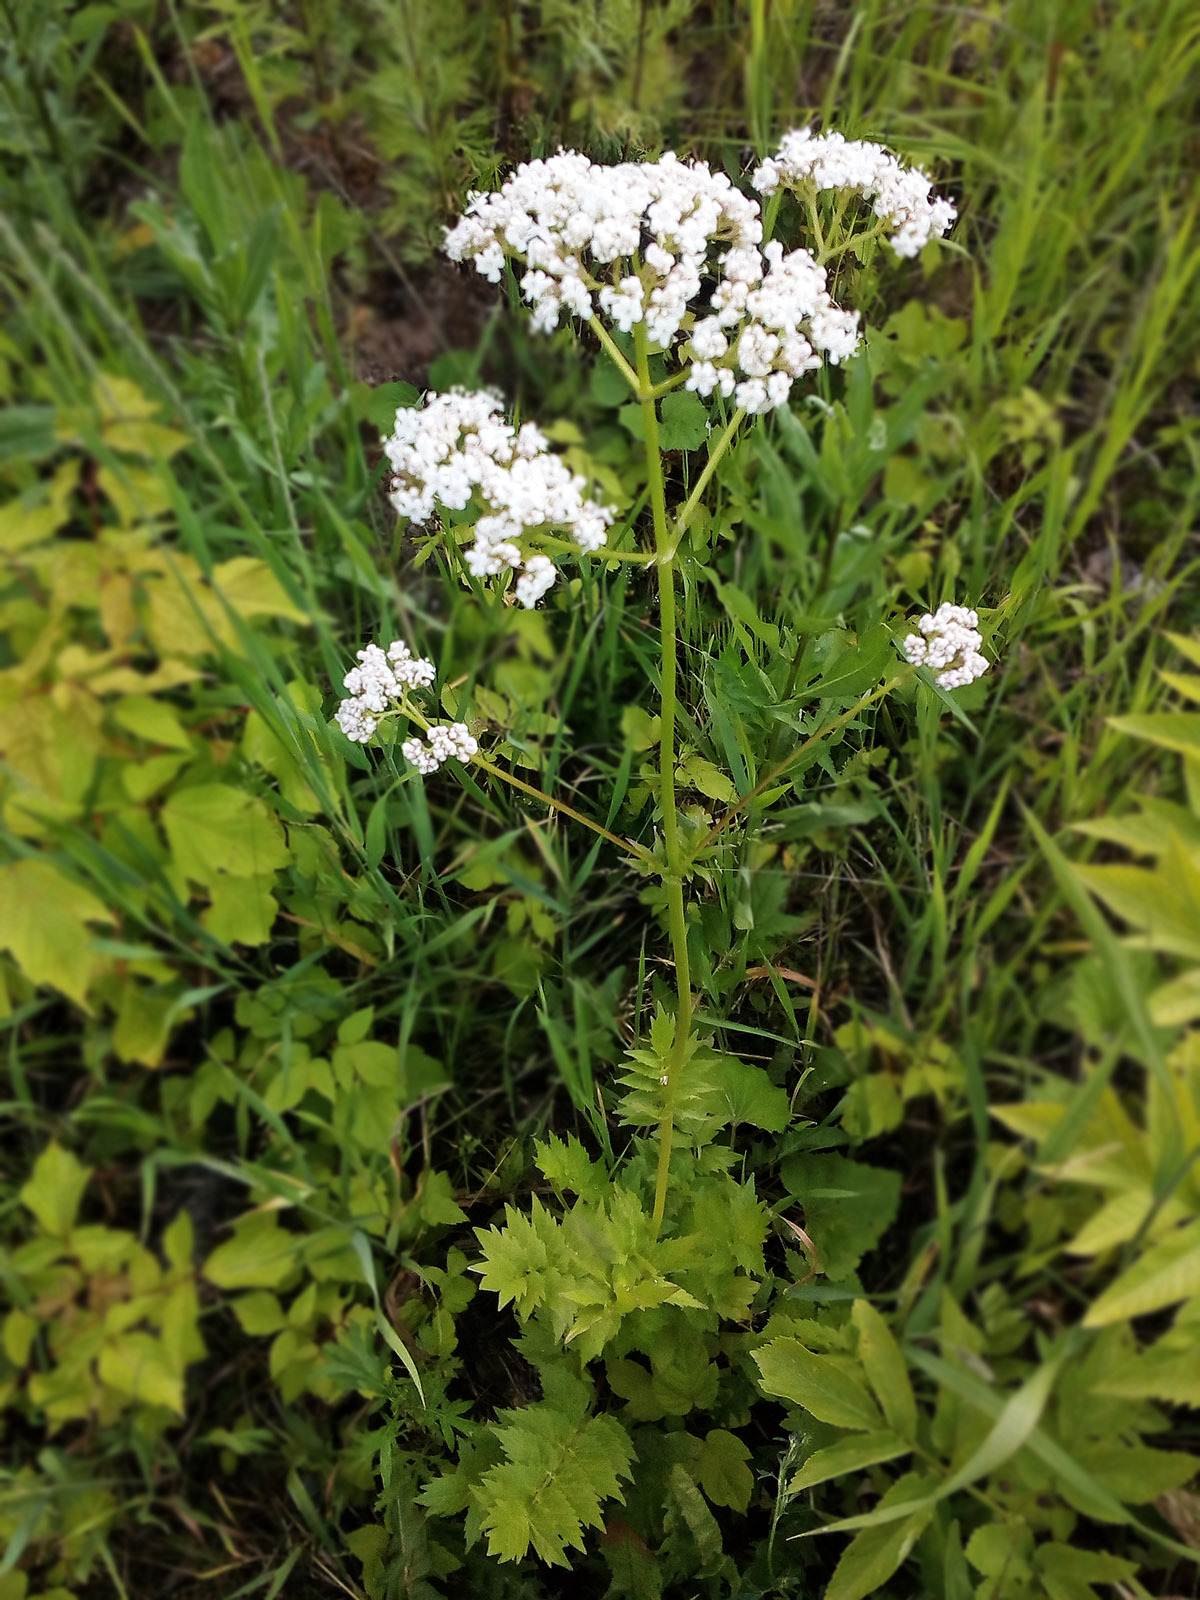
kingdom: Plantae
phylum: Tracheophyta
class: Magnoliopsida
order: Dipsacales
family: Caprifoliaceae
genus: Valeriana
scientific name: Valeriana officinalis
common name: Common valerian
